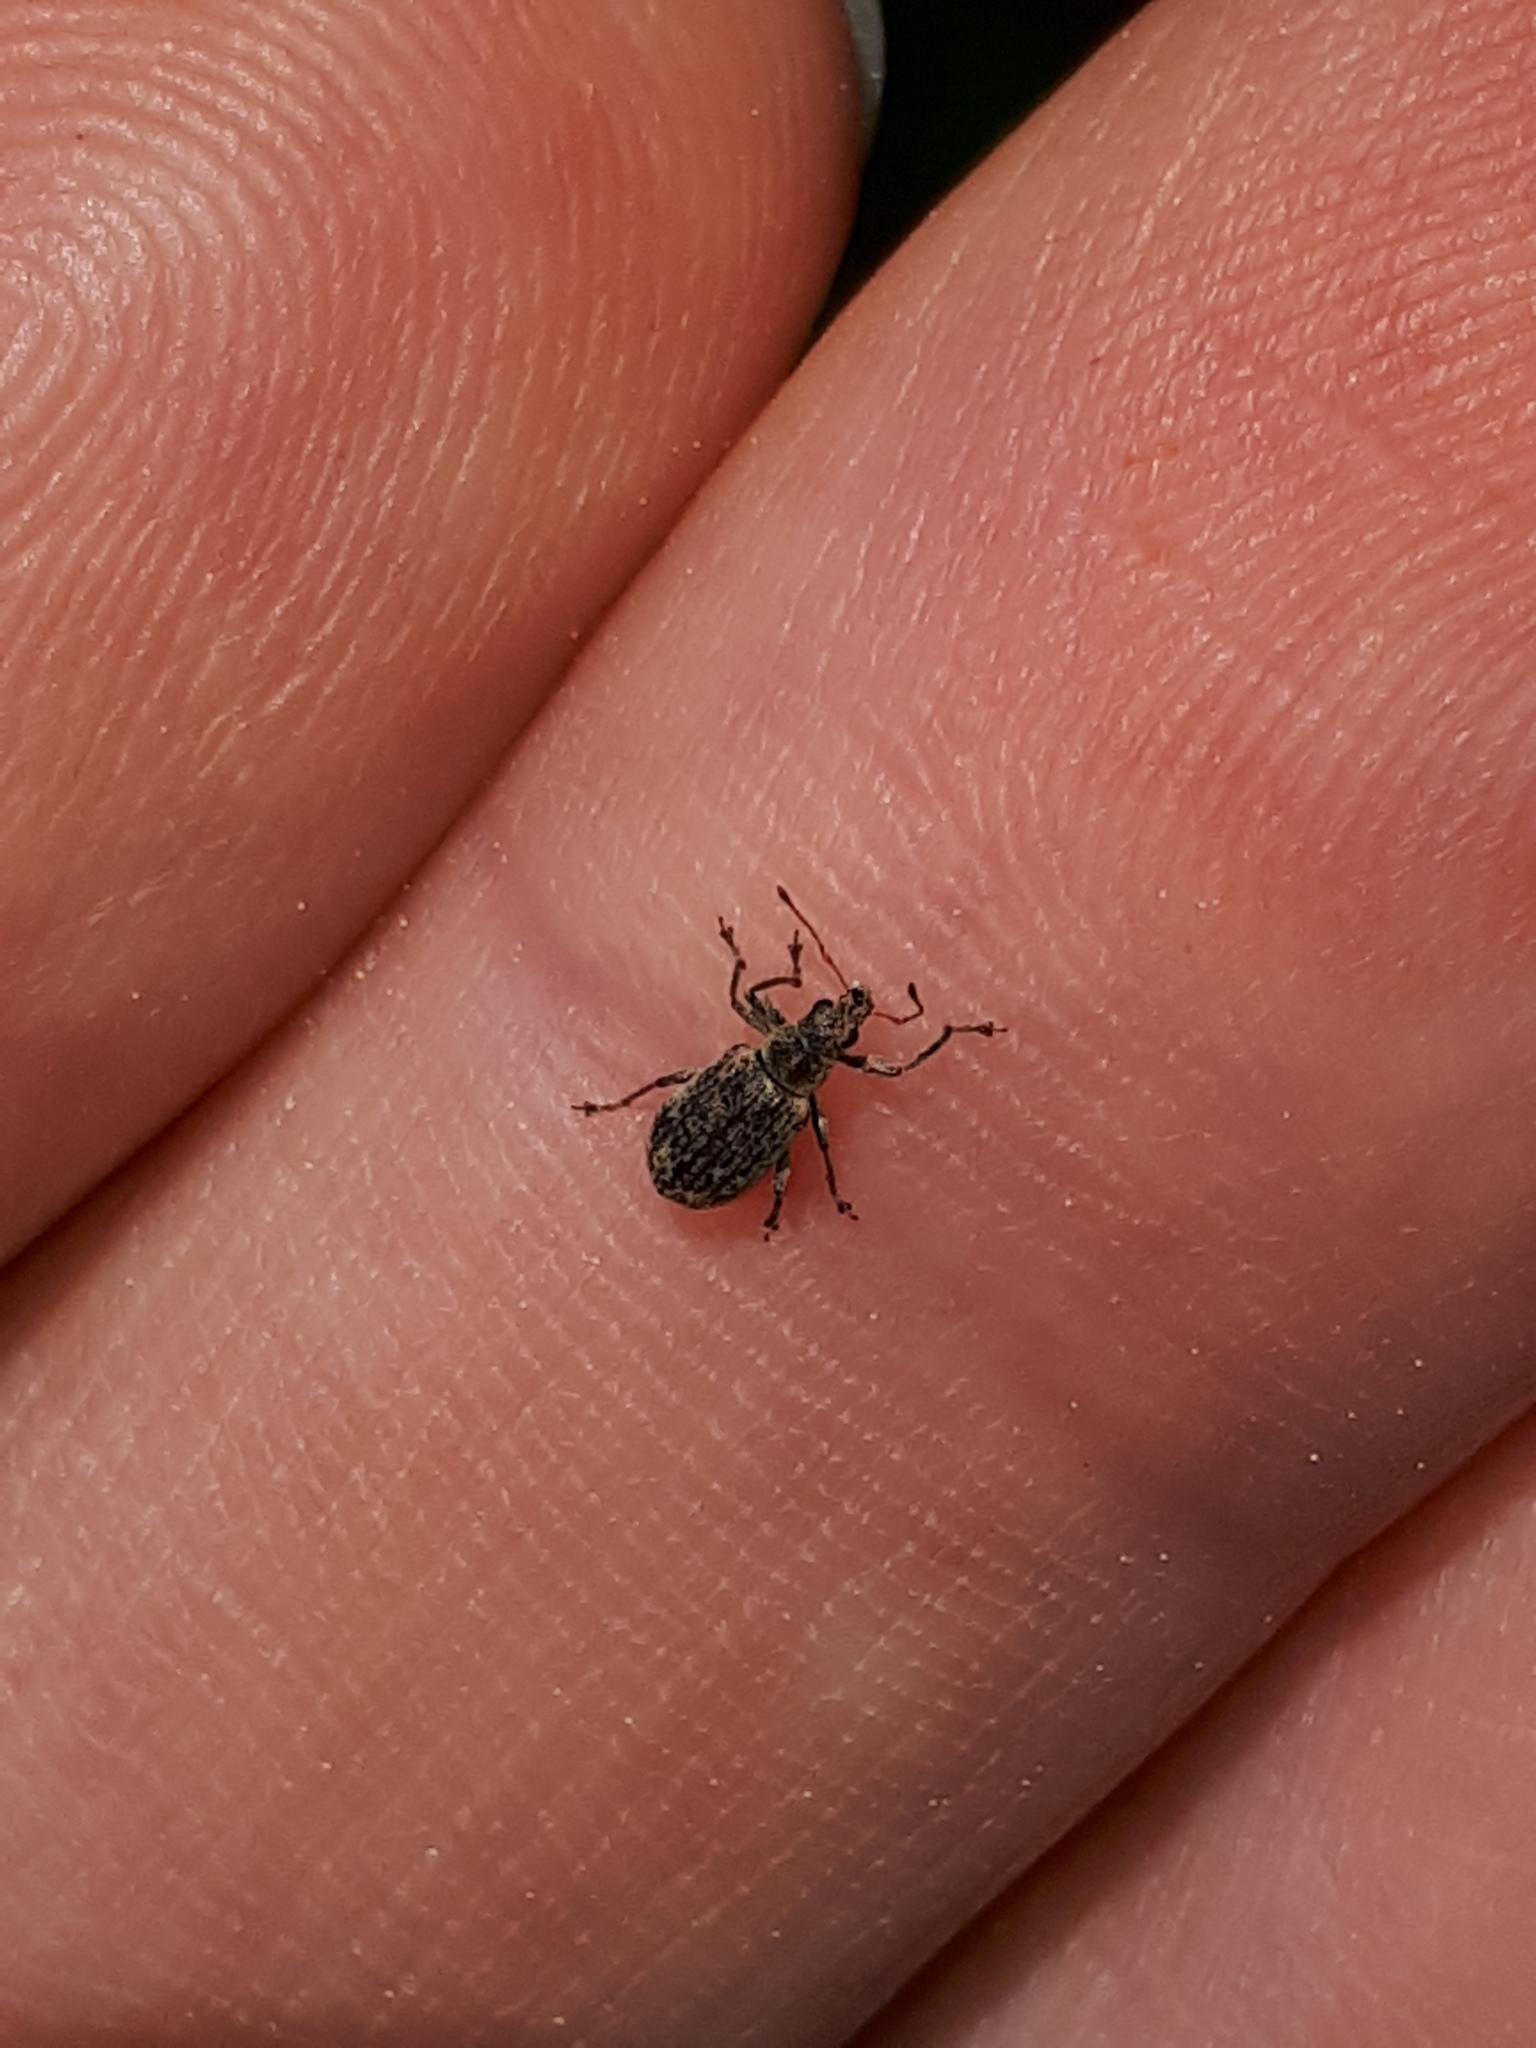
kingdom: Animalia
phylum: Arthropoda
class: Insecta
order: Coleoptera
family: Curculionidae
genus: Polydrusus
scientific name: Polydrusus cervinus
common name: Weevil
